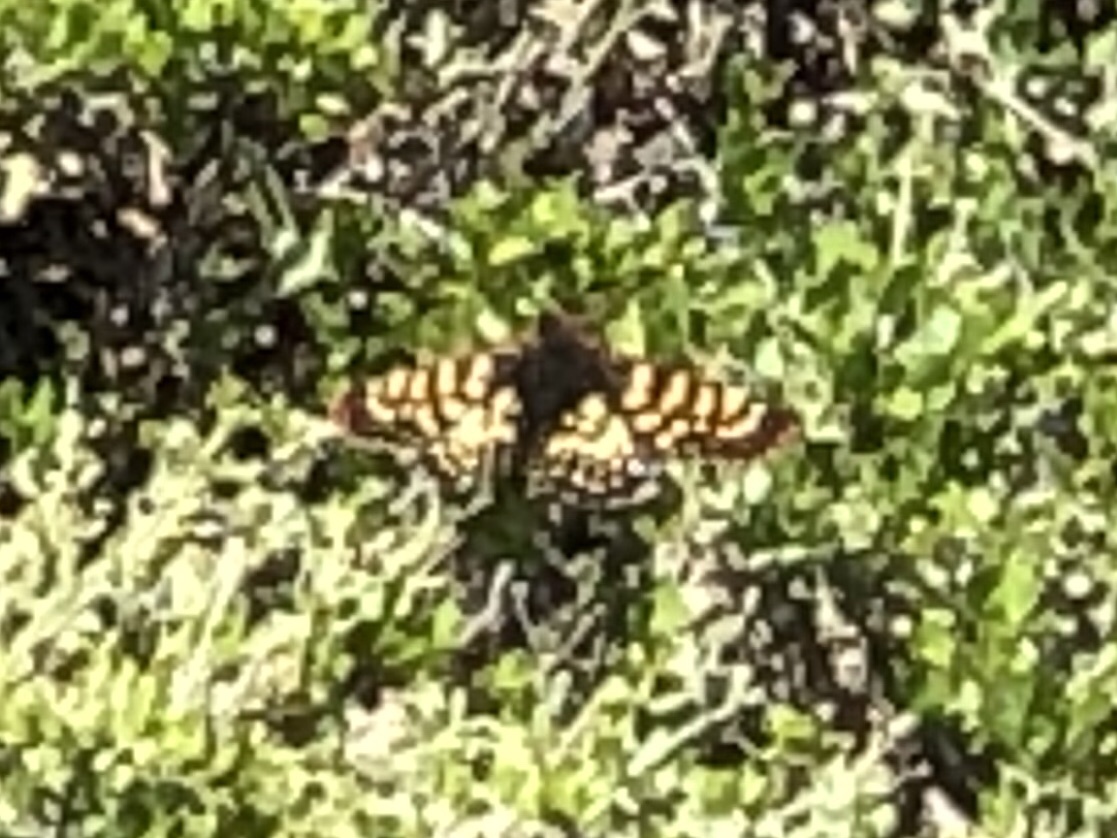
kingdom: Animalia
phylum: Arthropoda
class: Insecta
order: Lepidoptera
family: Nymphalidae
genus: Occidryas
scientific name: Occidryas chalcedona
